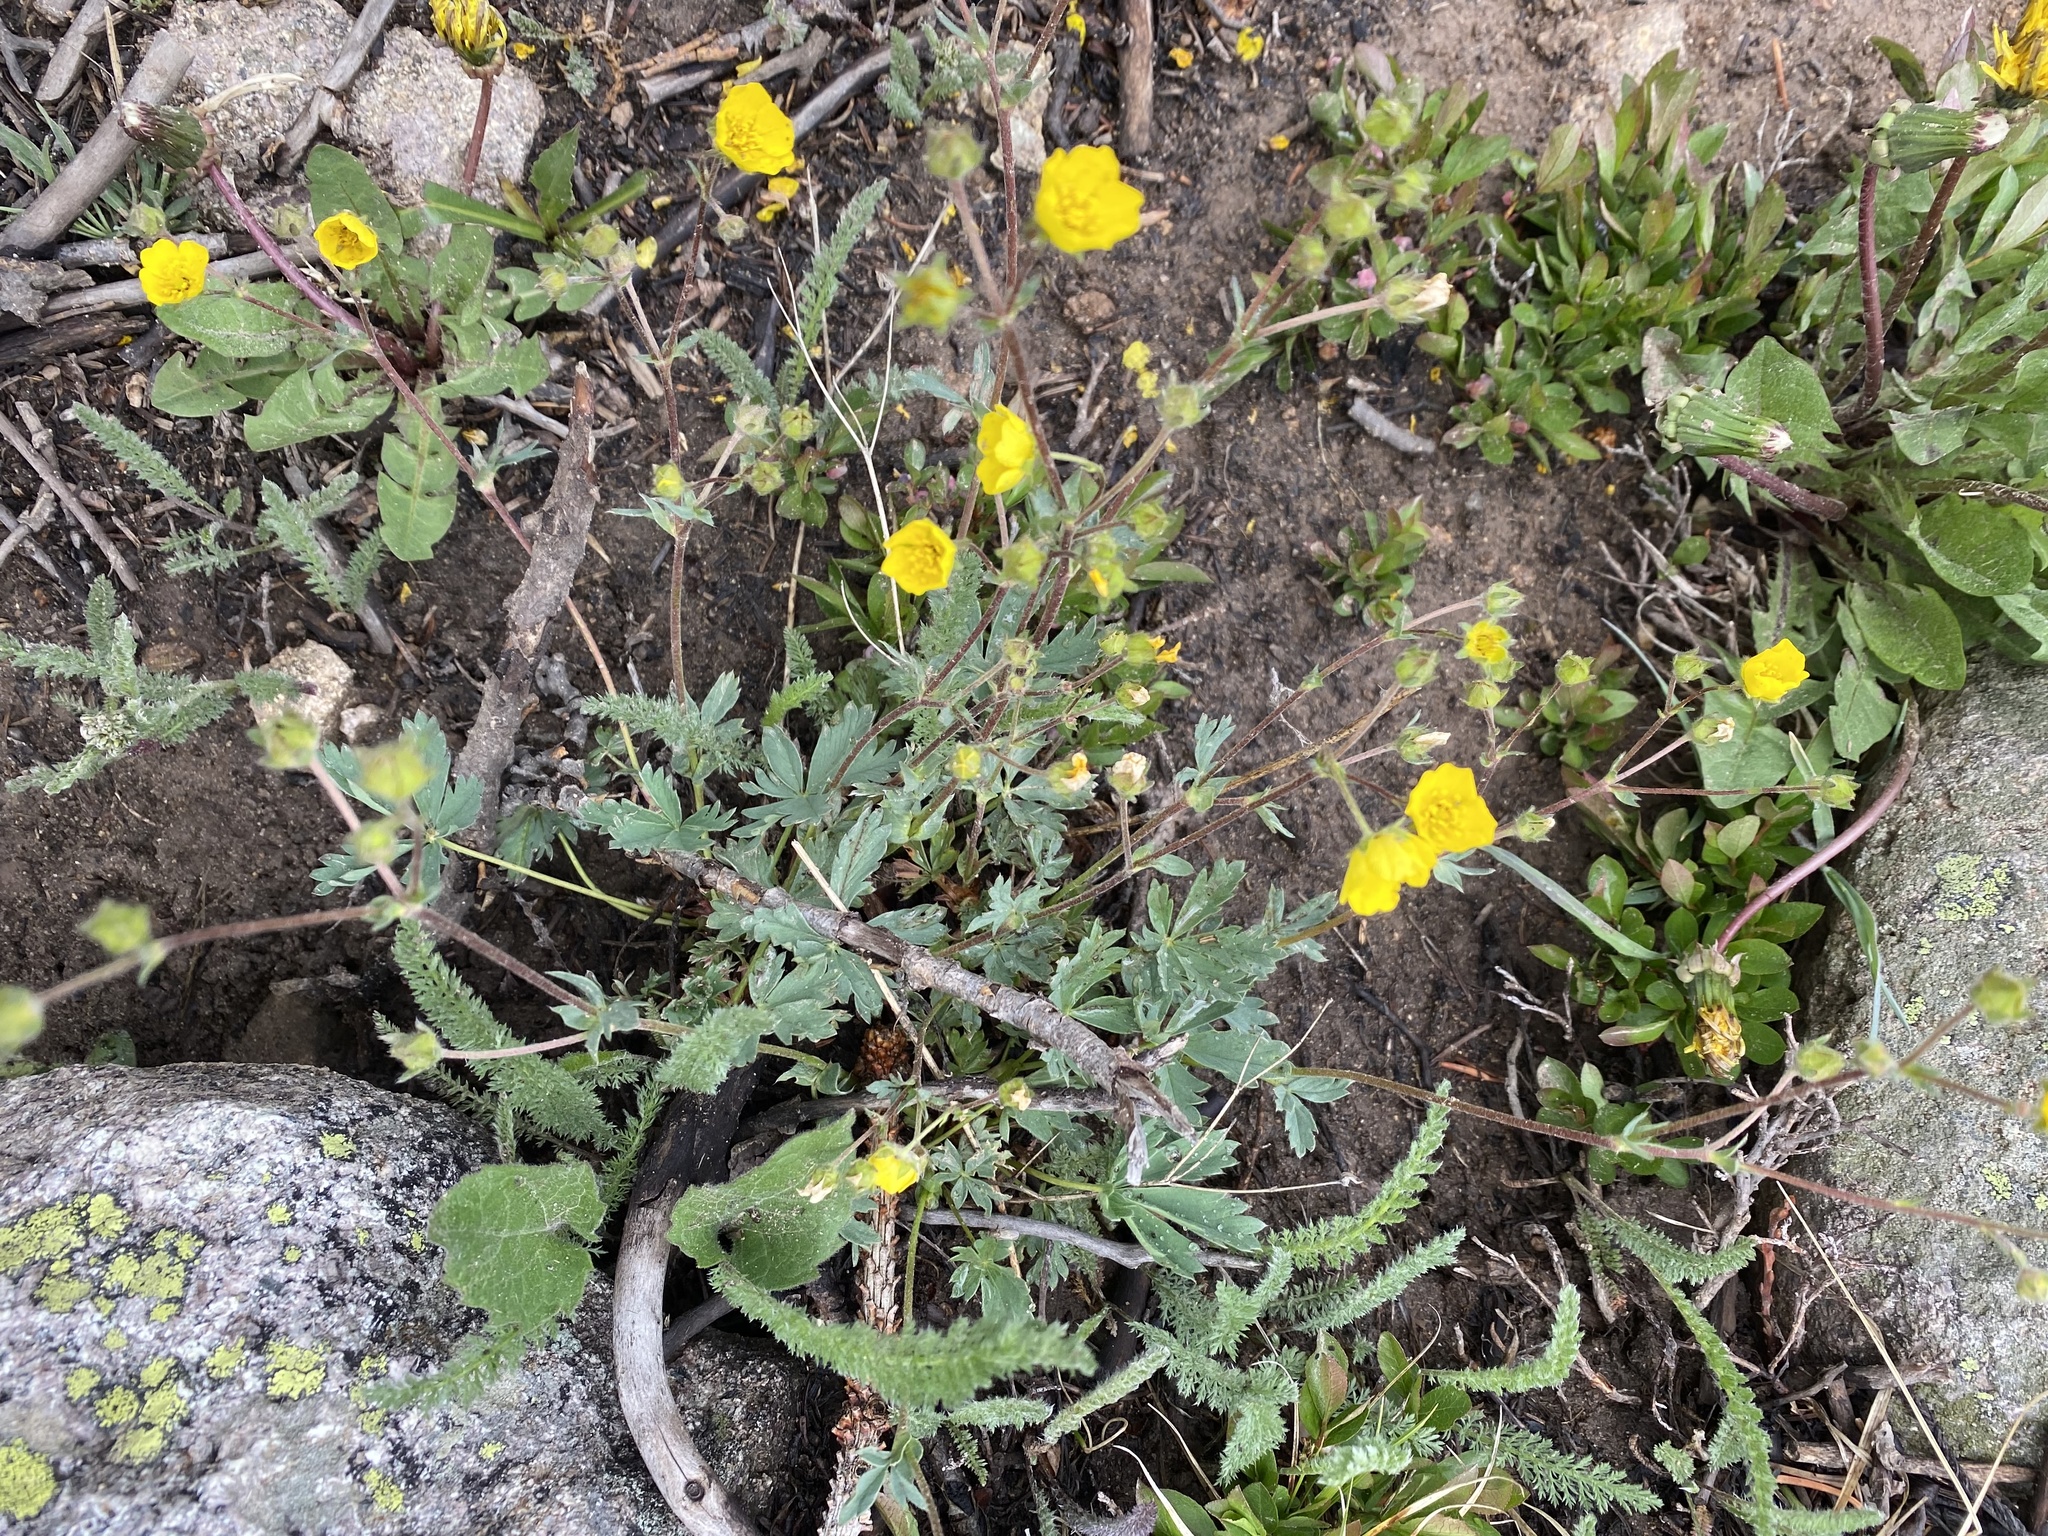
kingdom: Plantae
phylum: Tracheophyta
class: Magnoliopsida
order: Rosales
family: Rosaceae
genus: Potentilla
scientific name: Potentilla glaucophylla
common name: Blue-leaved cinquefoil
